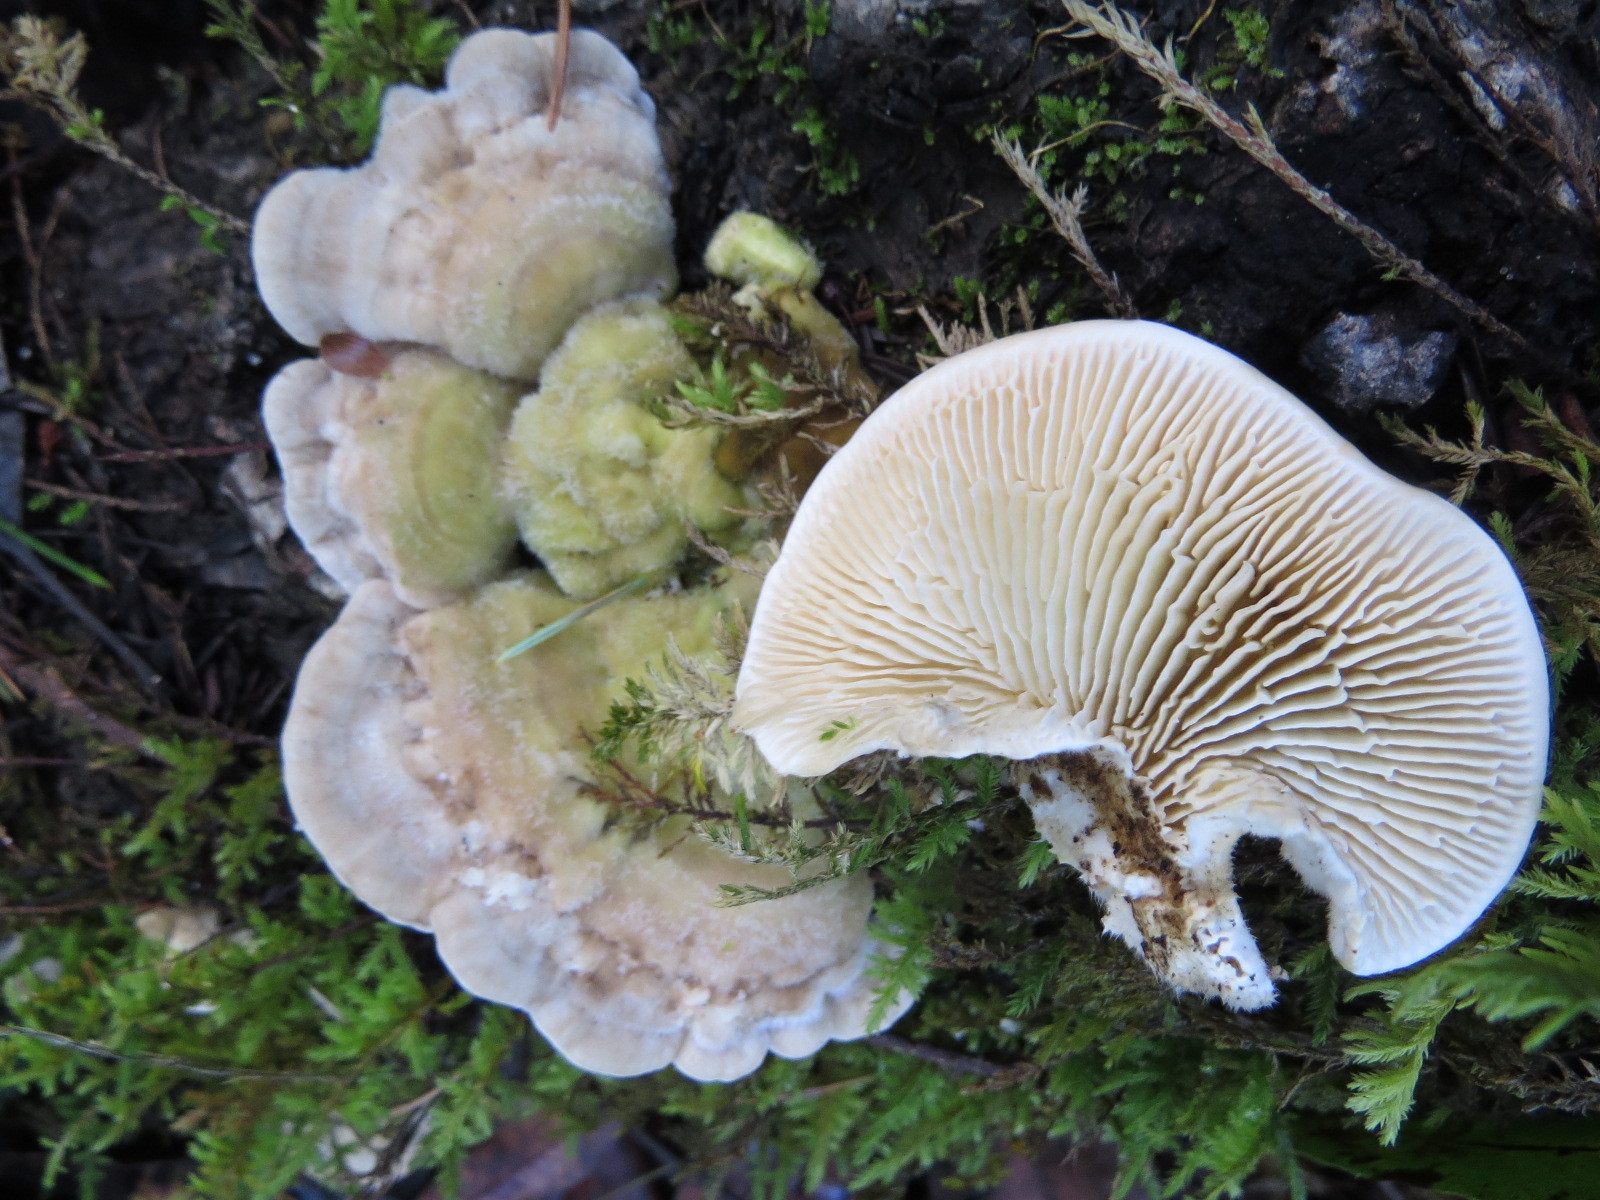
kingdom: Fungi
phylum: Basidiomycota
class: Agaricomycetes
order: Polyporales
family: Polyporaceae
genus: Lenzites
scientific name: Lenzites betulinus
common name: Birch mazegill
